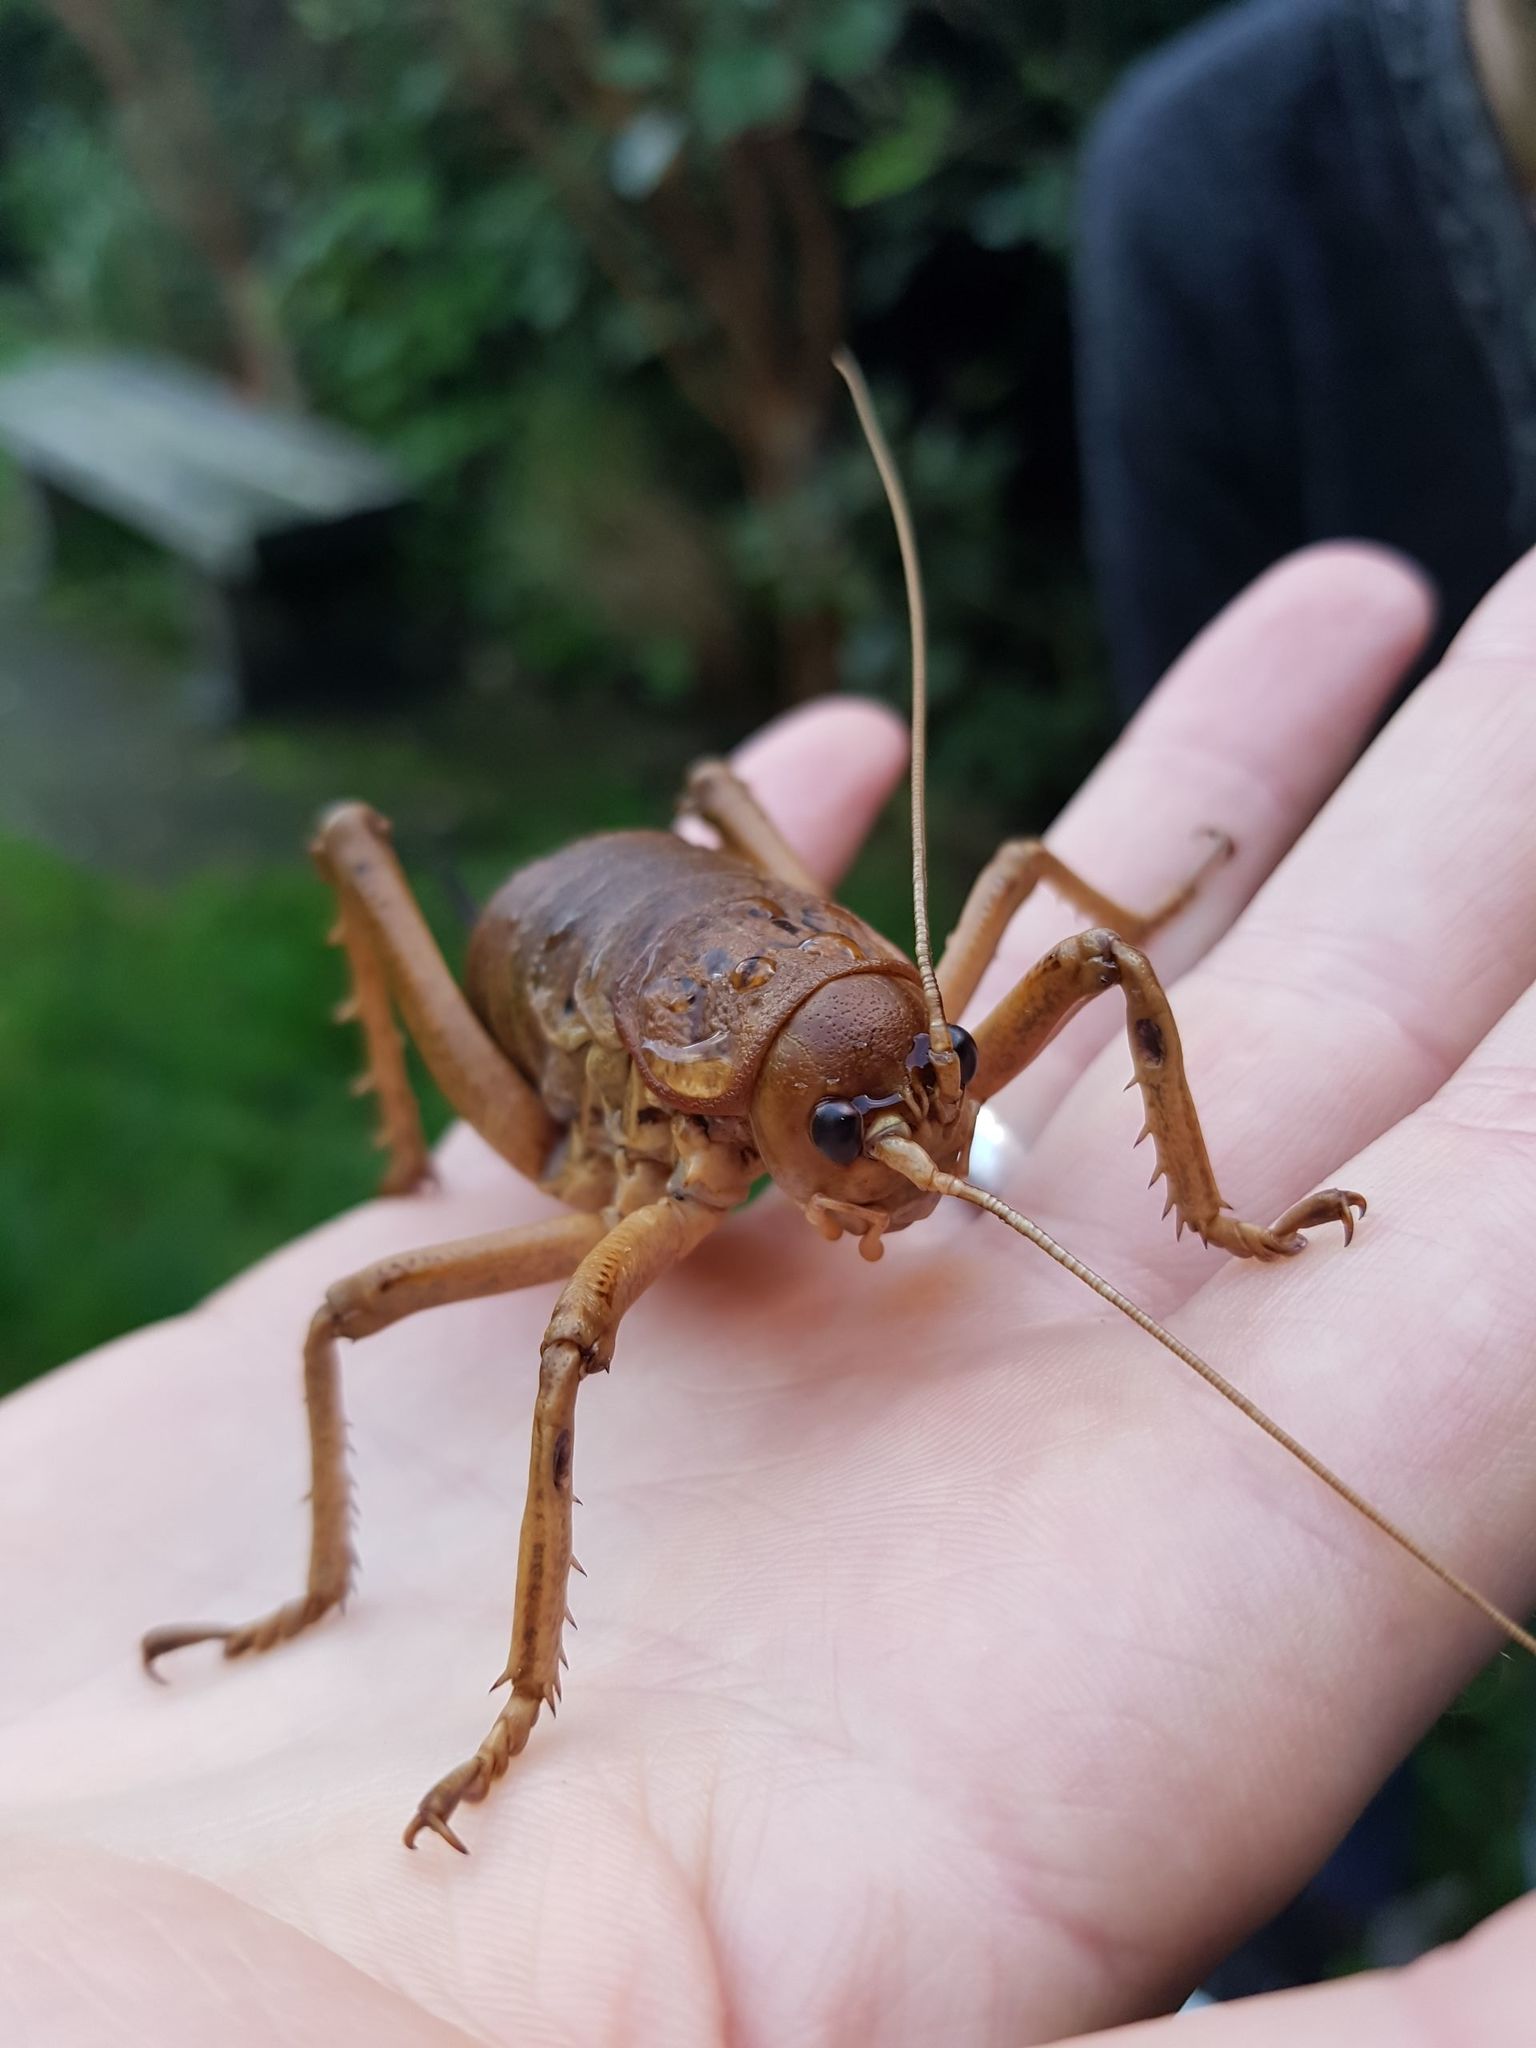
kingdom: Animalia
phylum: Arthropoda
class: Insecta
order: Orthoptera
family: Anostostomatidae
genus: Deinacrida
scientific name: Deinacrida rugosa
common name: Stephens island weta
